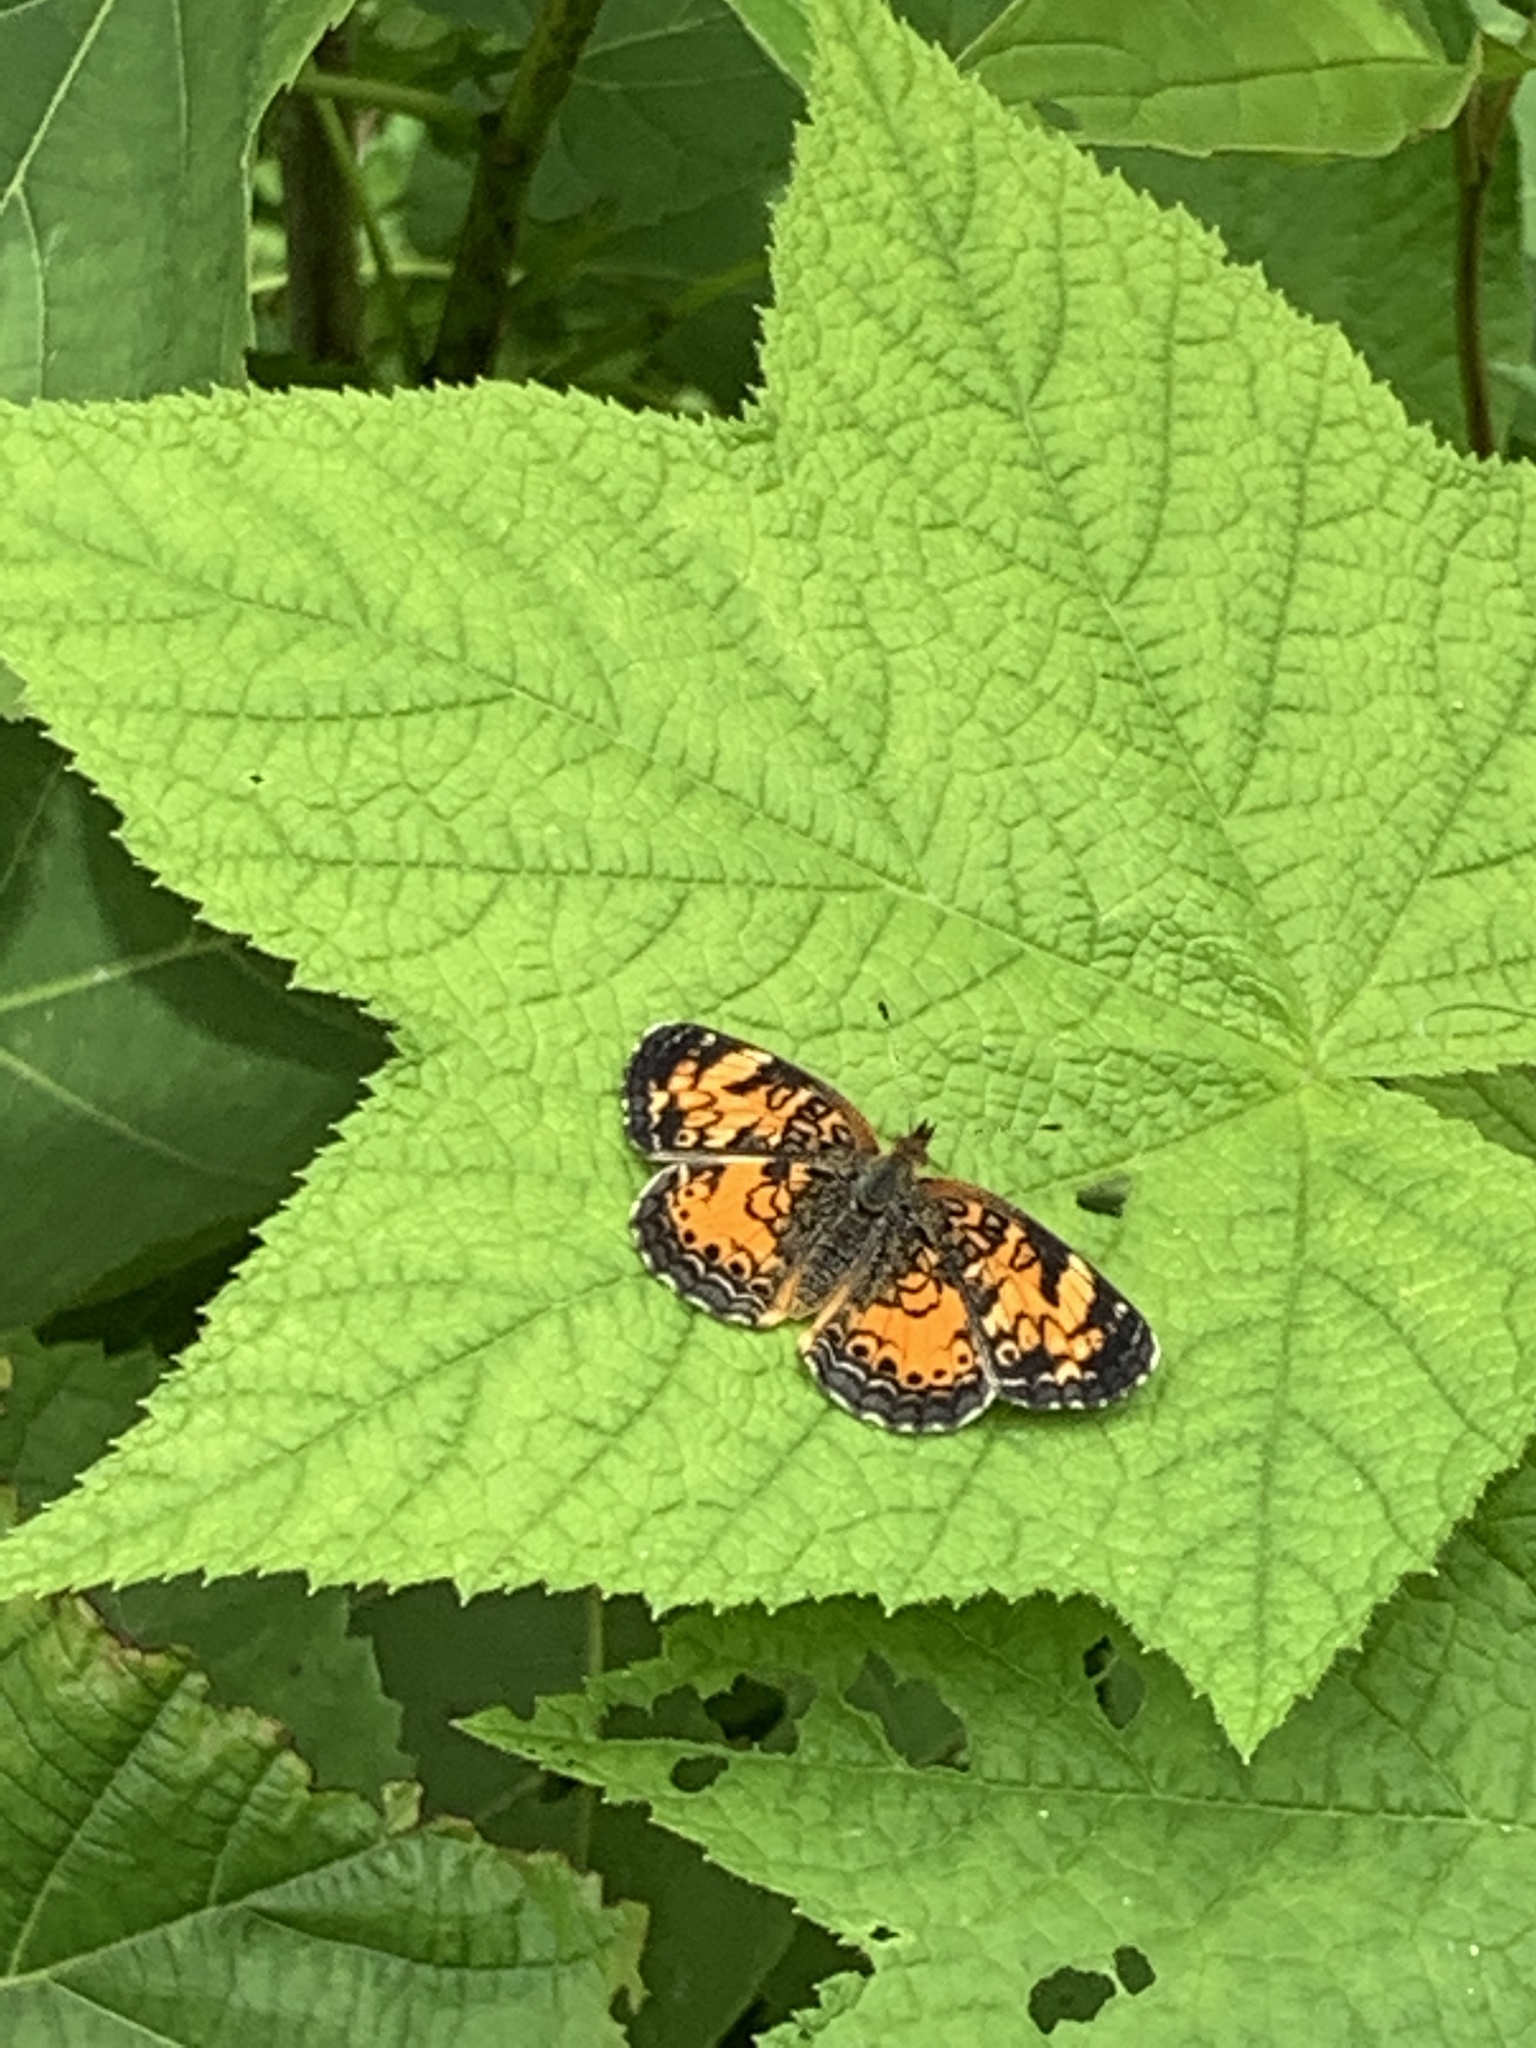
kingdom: Animalia
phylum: Arthropoda
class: Insecta
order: Lepidoptera
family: Nymphalidae
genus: Phyciodes
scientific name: Phyciodes tharos
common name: Pearl crescent
